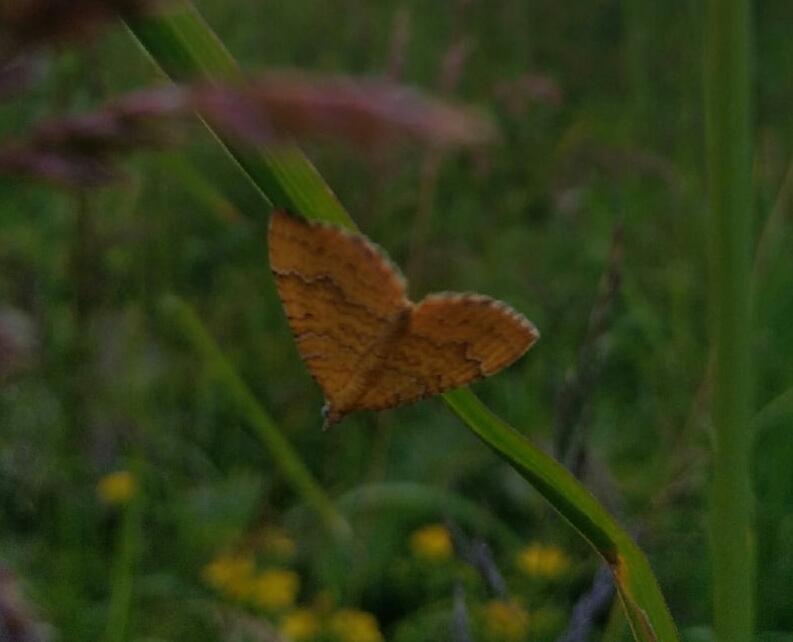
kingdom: Animalia
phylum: Arthropoda
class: Insecta
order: Lepidoptera
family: Geometridae
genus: Camptogramma
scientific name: Camptogramma bilineata
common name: Yellow shell
